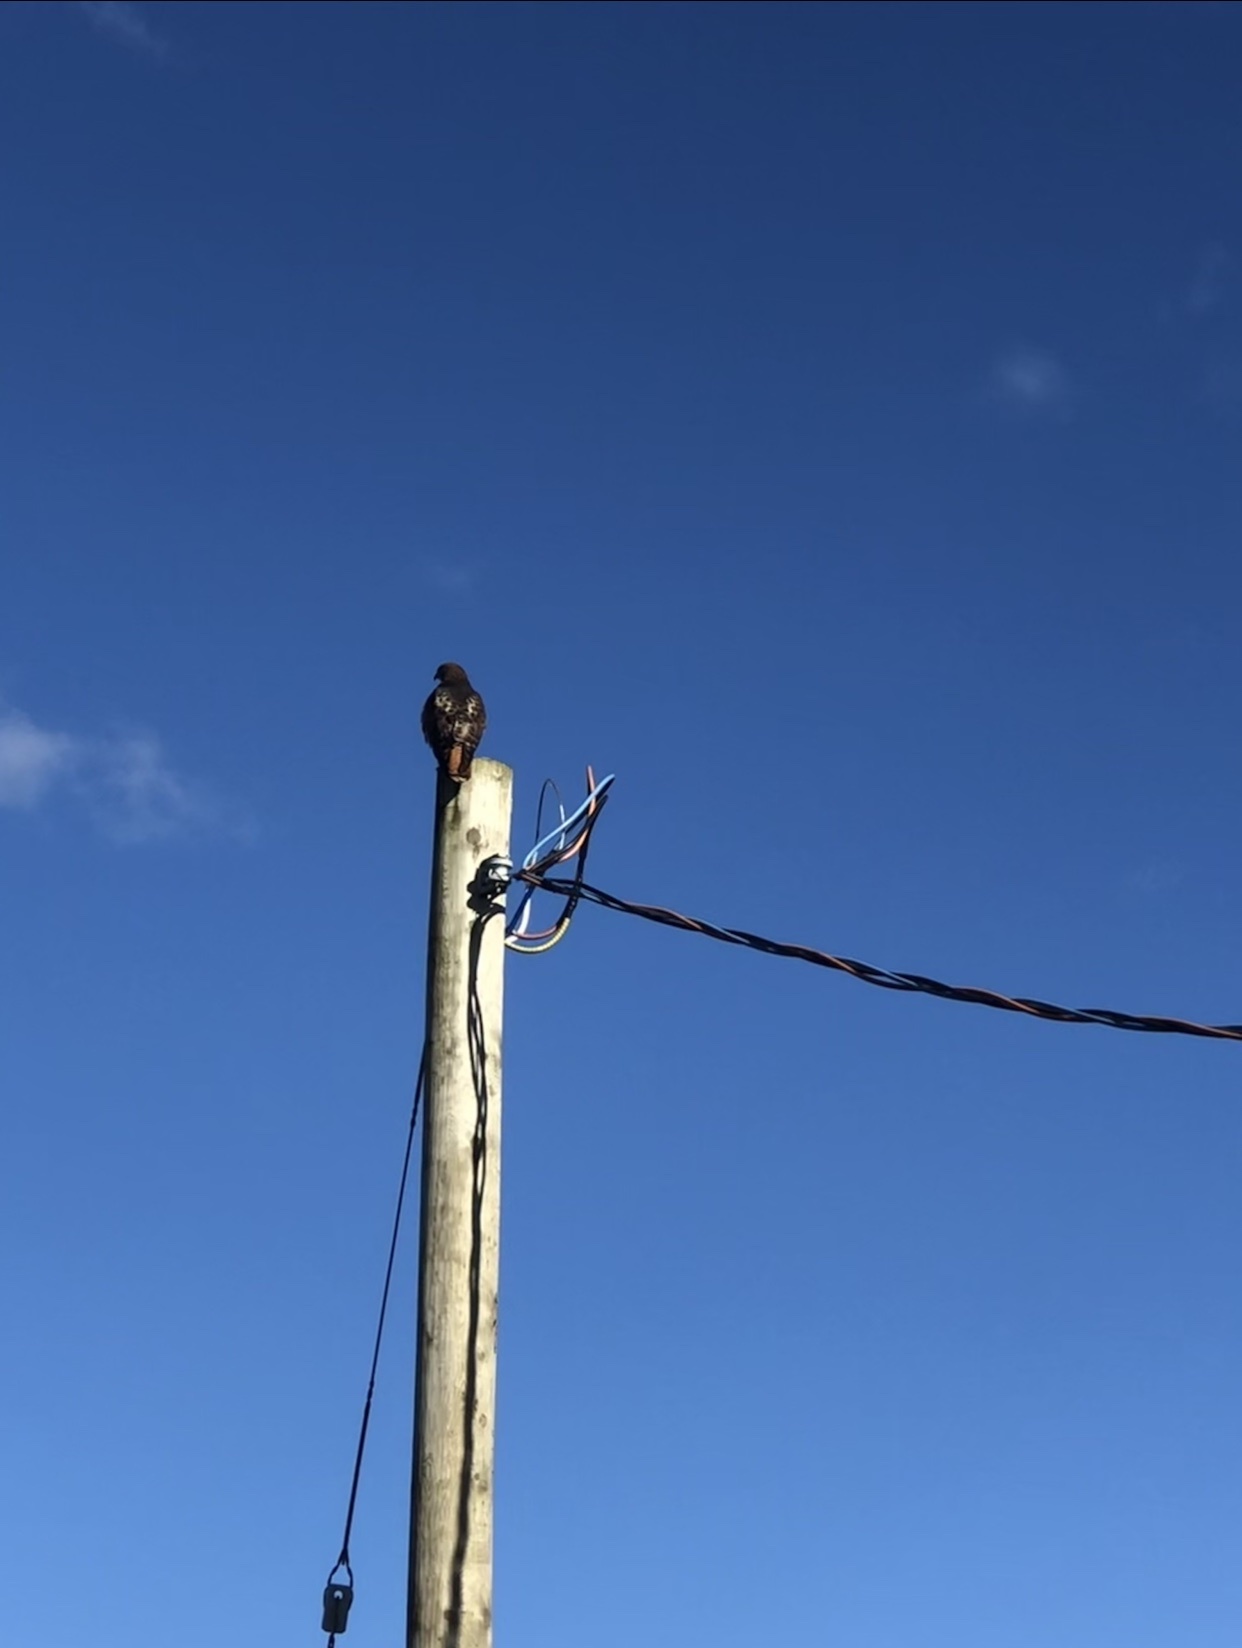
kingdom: Animalia
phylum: Chordata
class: Aves
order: Accipitriformes
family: Accipitridae
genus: Buteo
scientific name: Buteo jamaicensis
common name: Red-tailed hawk
